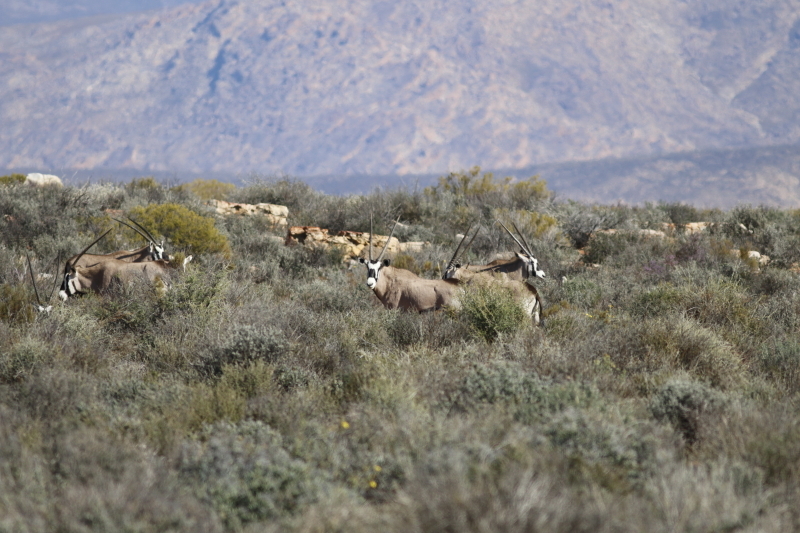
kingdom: Animalia
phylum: Chordata
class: Mammalia
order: Artiodactyla
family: Bovidae
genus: Oryx
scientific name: Oryx gazella
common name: Gemsbok
